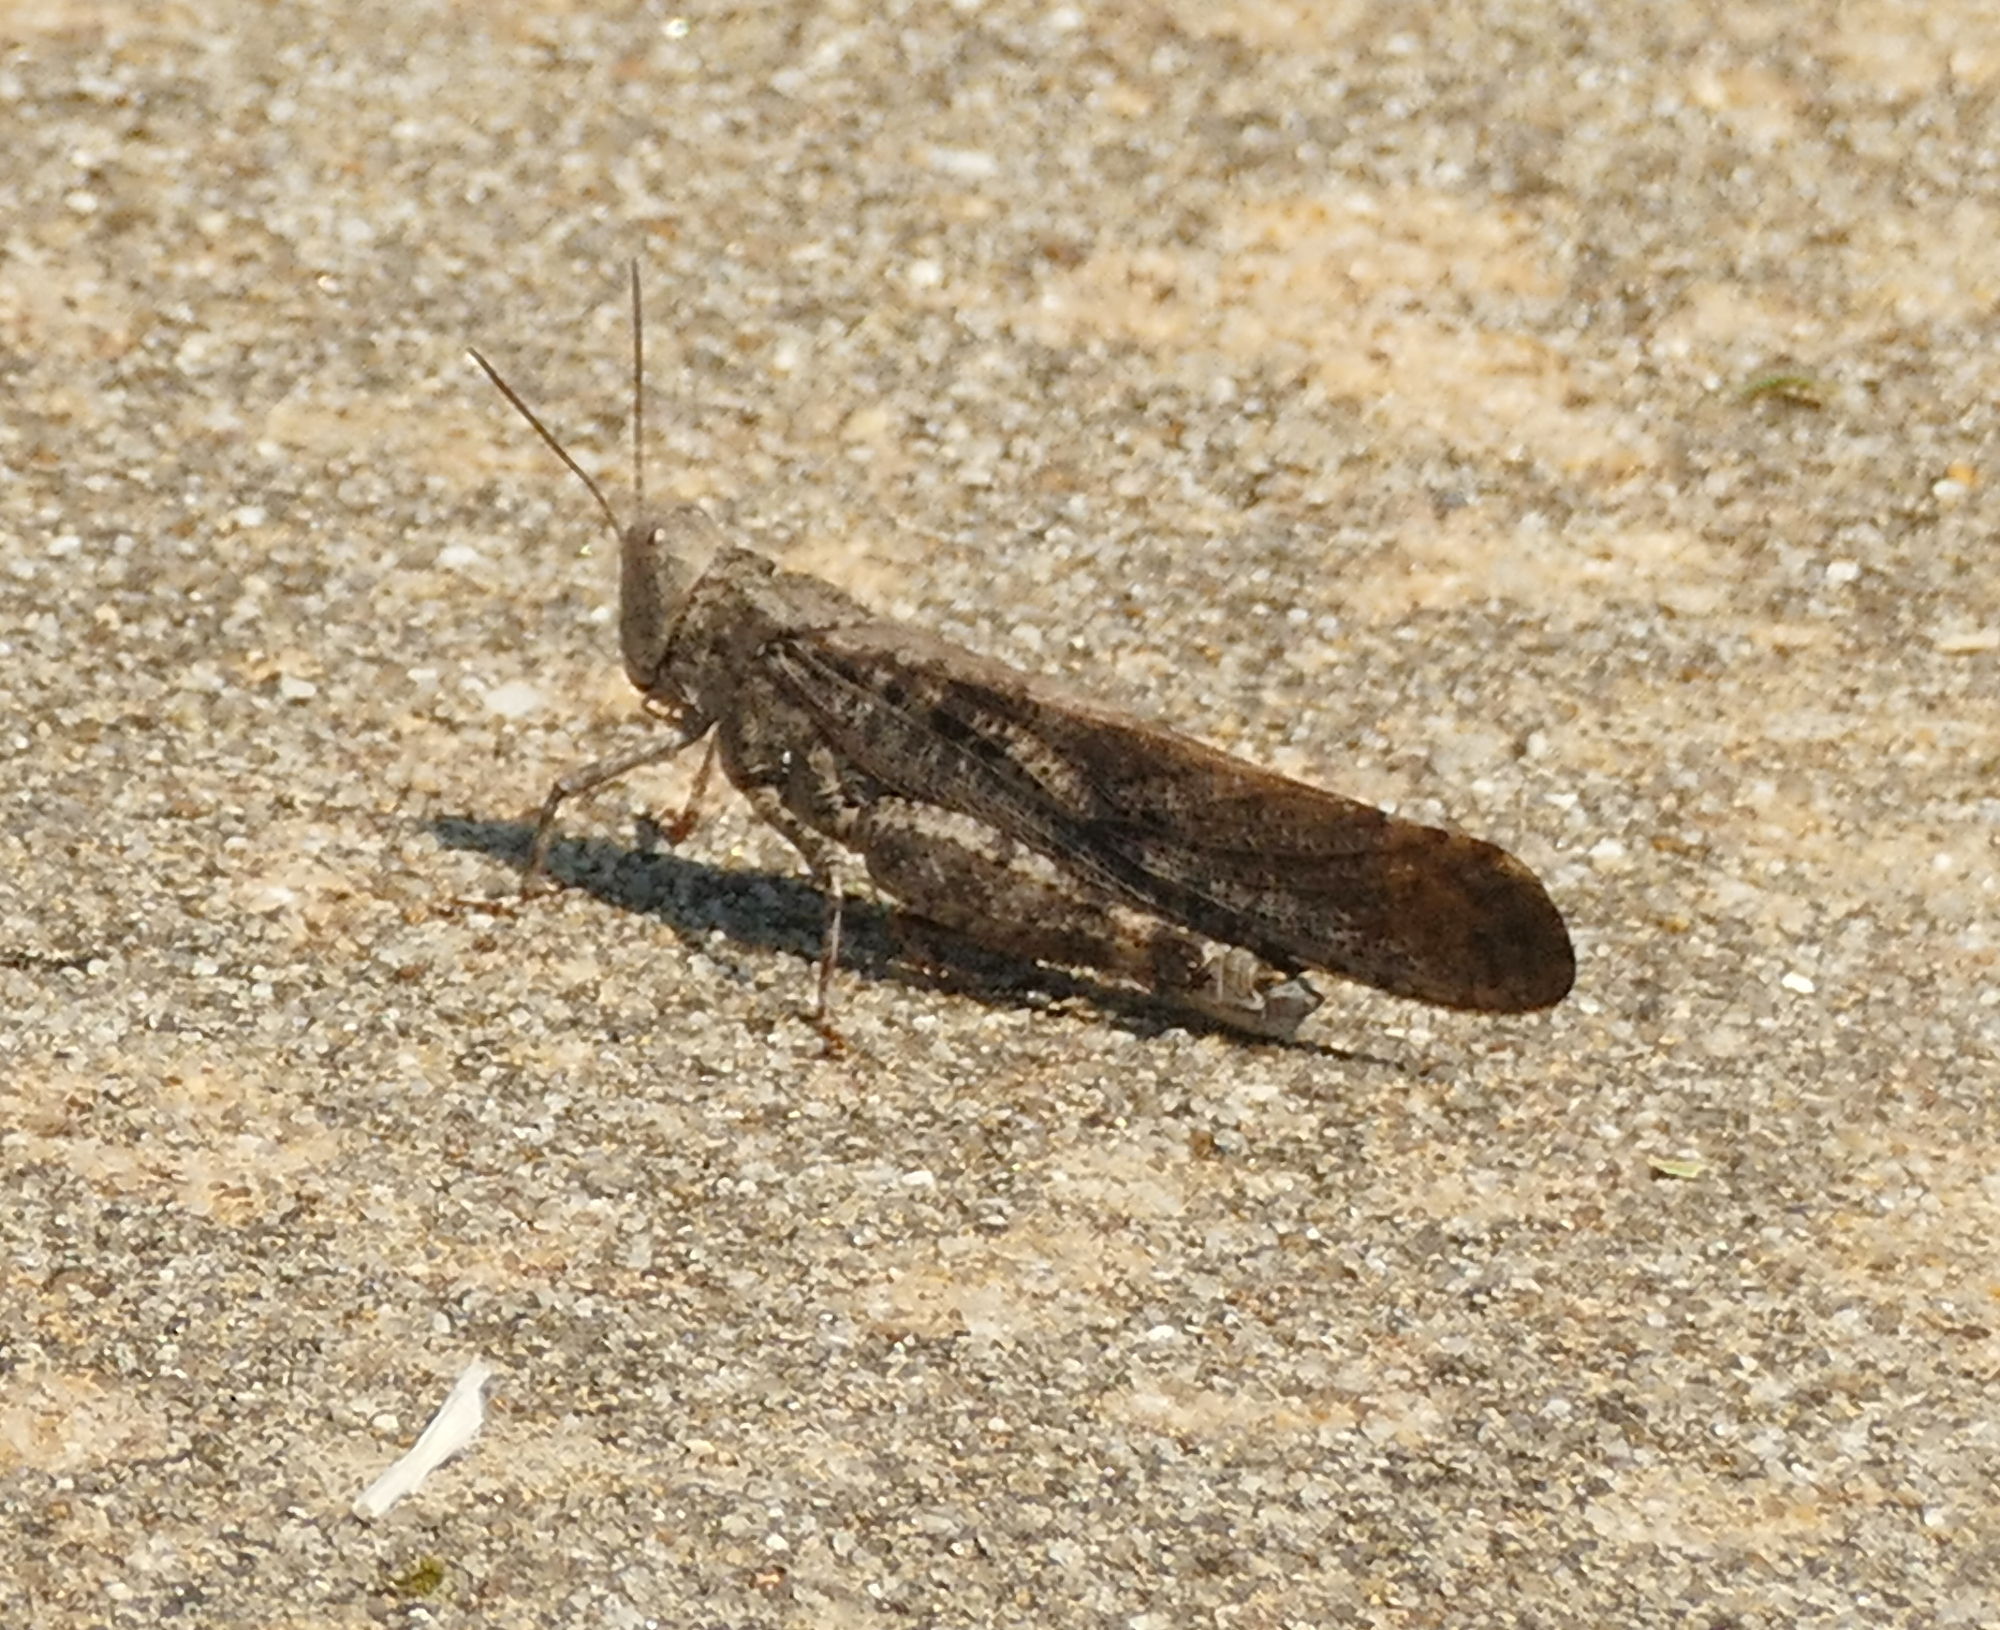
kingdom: Animalia
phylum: Arthropoda
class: Insecta
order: Orthoptera
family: Acrididae
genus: Dissosteira
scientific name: Dissosteira carolina
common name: Carolina grasshopper
